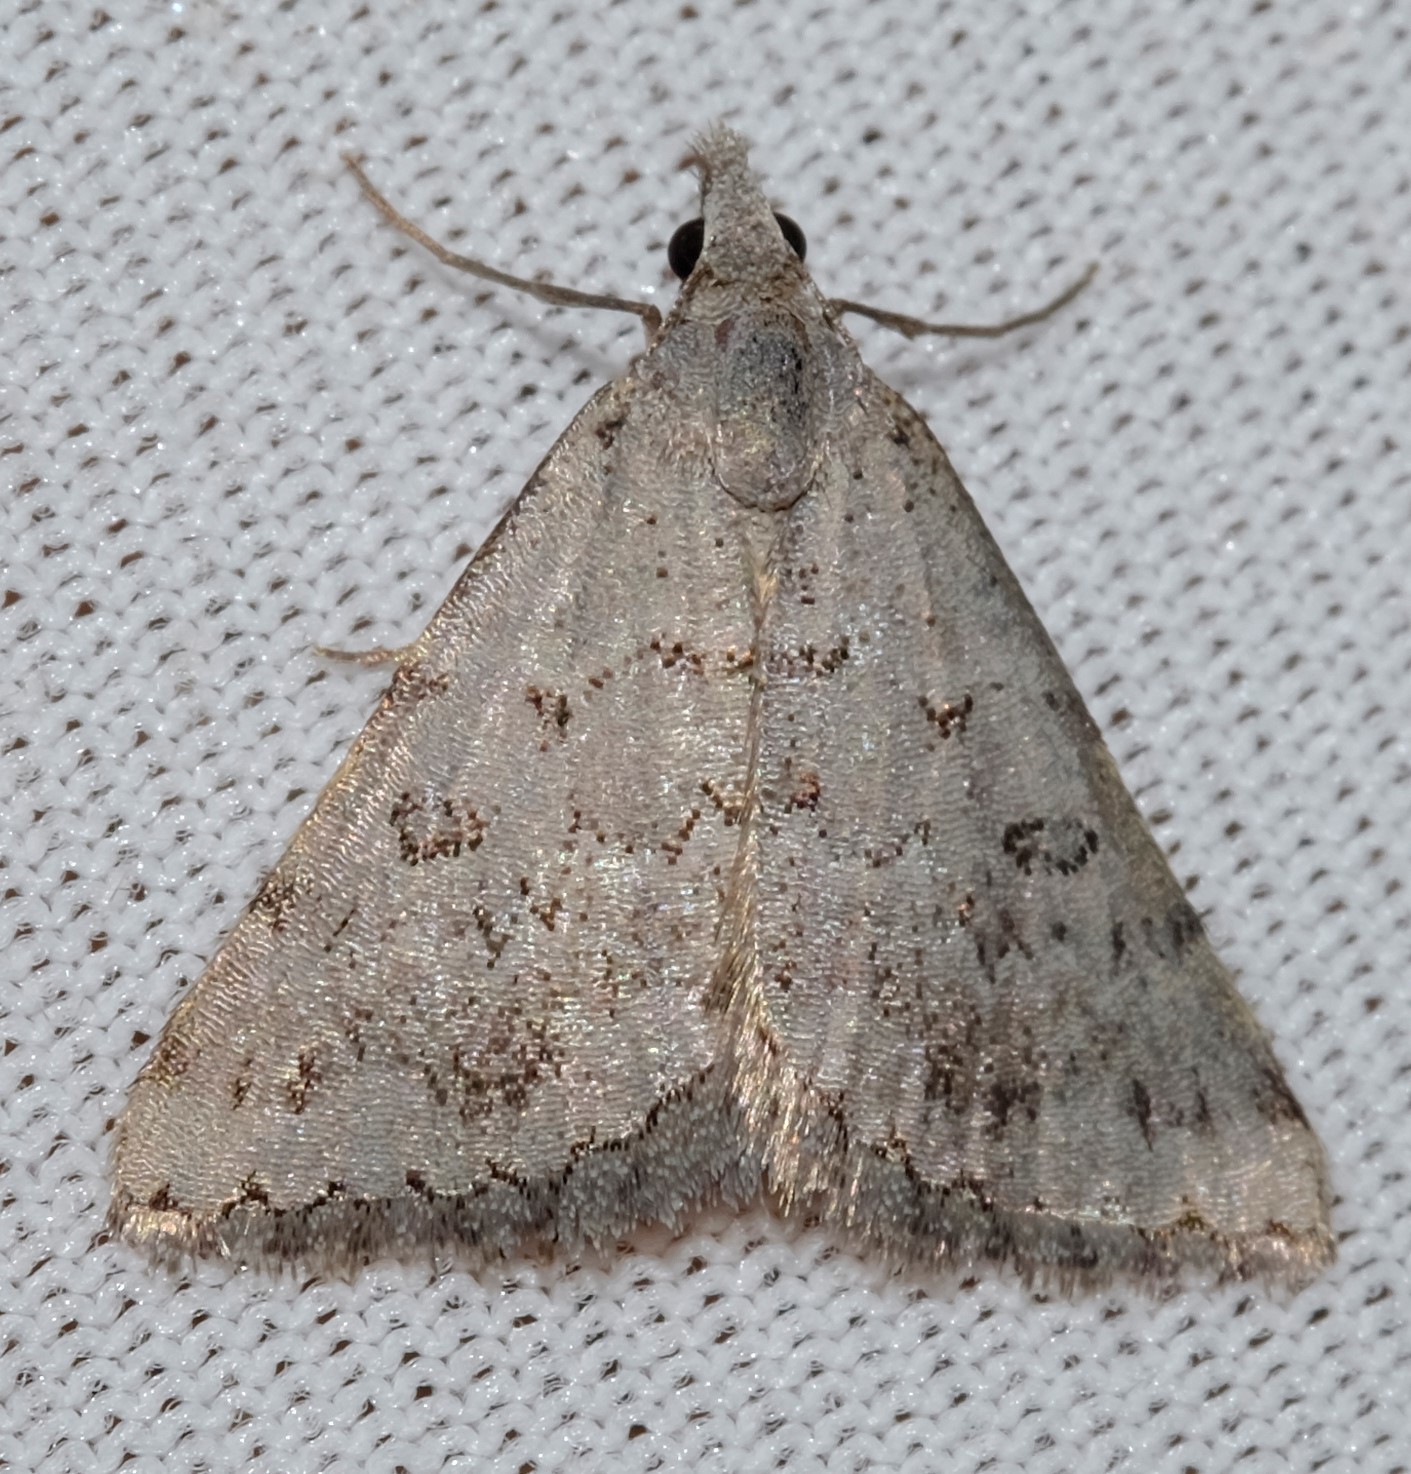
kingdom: Animalia
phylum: Arthropoda
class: Insecta
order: Lepidoptera
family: Geometridae
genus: Dichromodes
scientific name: Dichromodes indicataria
